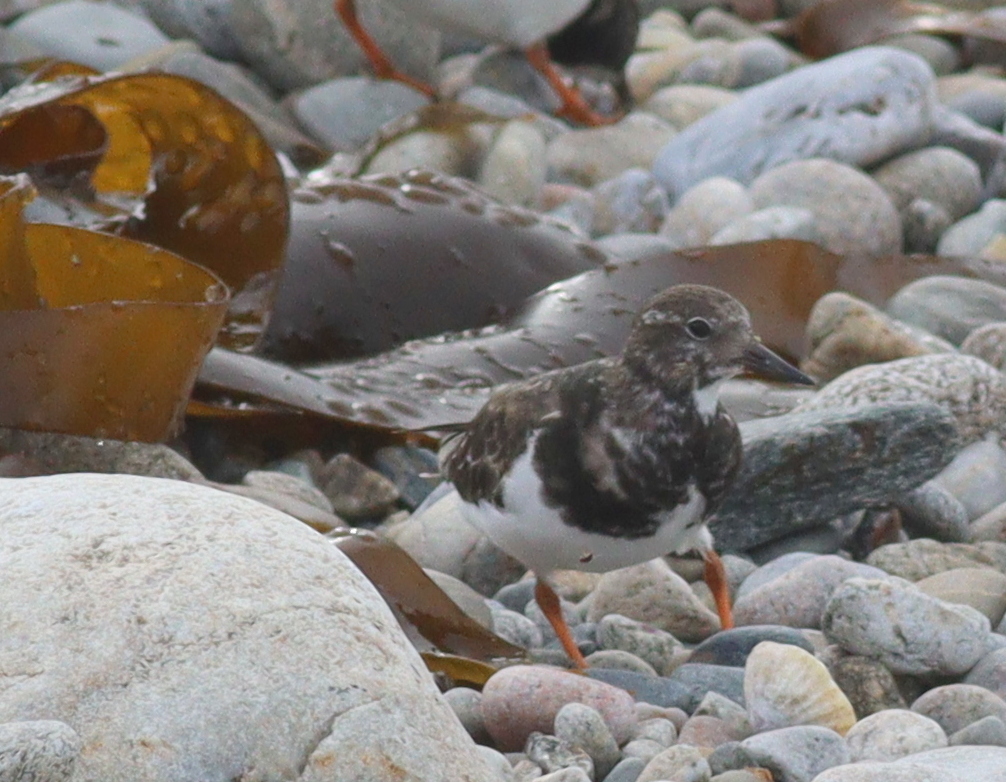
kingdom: Animalia
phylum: Chordata
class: Aves
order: Charadriiformes
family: Scolopacidae
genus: Arenaria
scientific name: Arenaria interpres
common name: Ruddy turnstone
